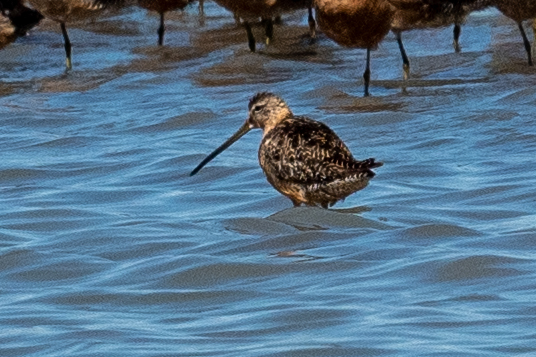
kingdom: Animalia
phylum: Chordata
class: Aves
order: Charadriiformes
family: Scolopacidae
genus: Limnodromus
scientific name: Limnodromus scolopaceus
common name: Long-billed dowitcher
